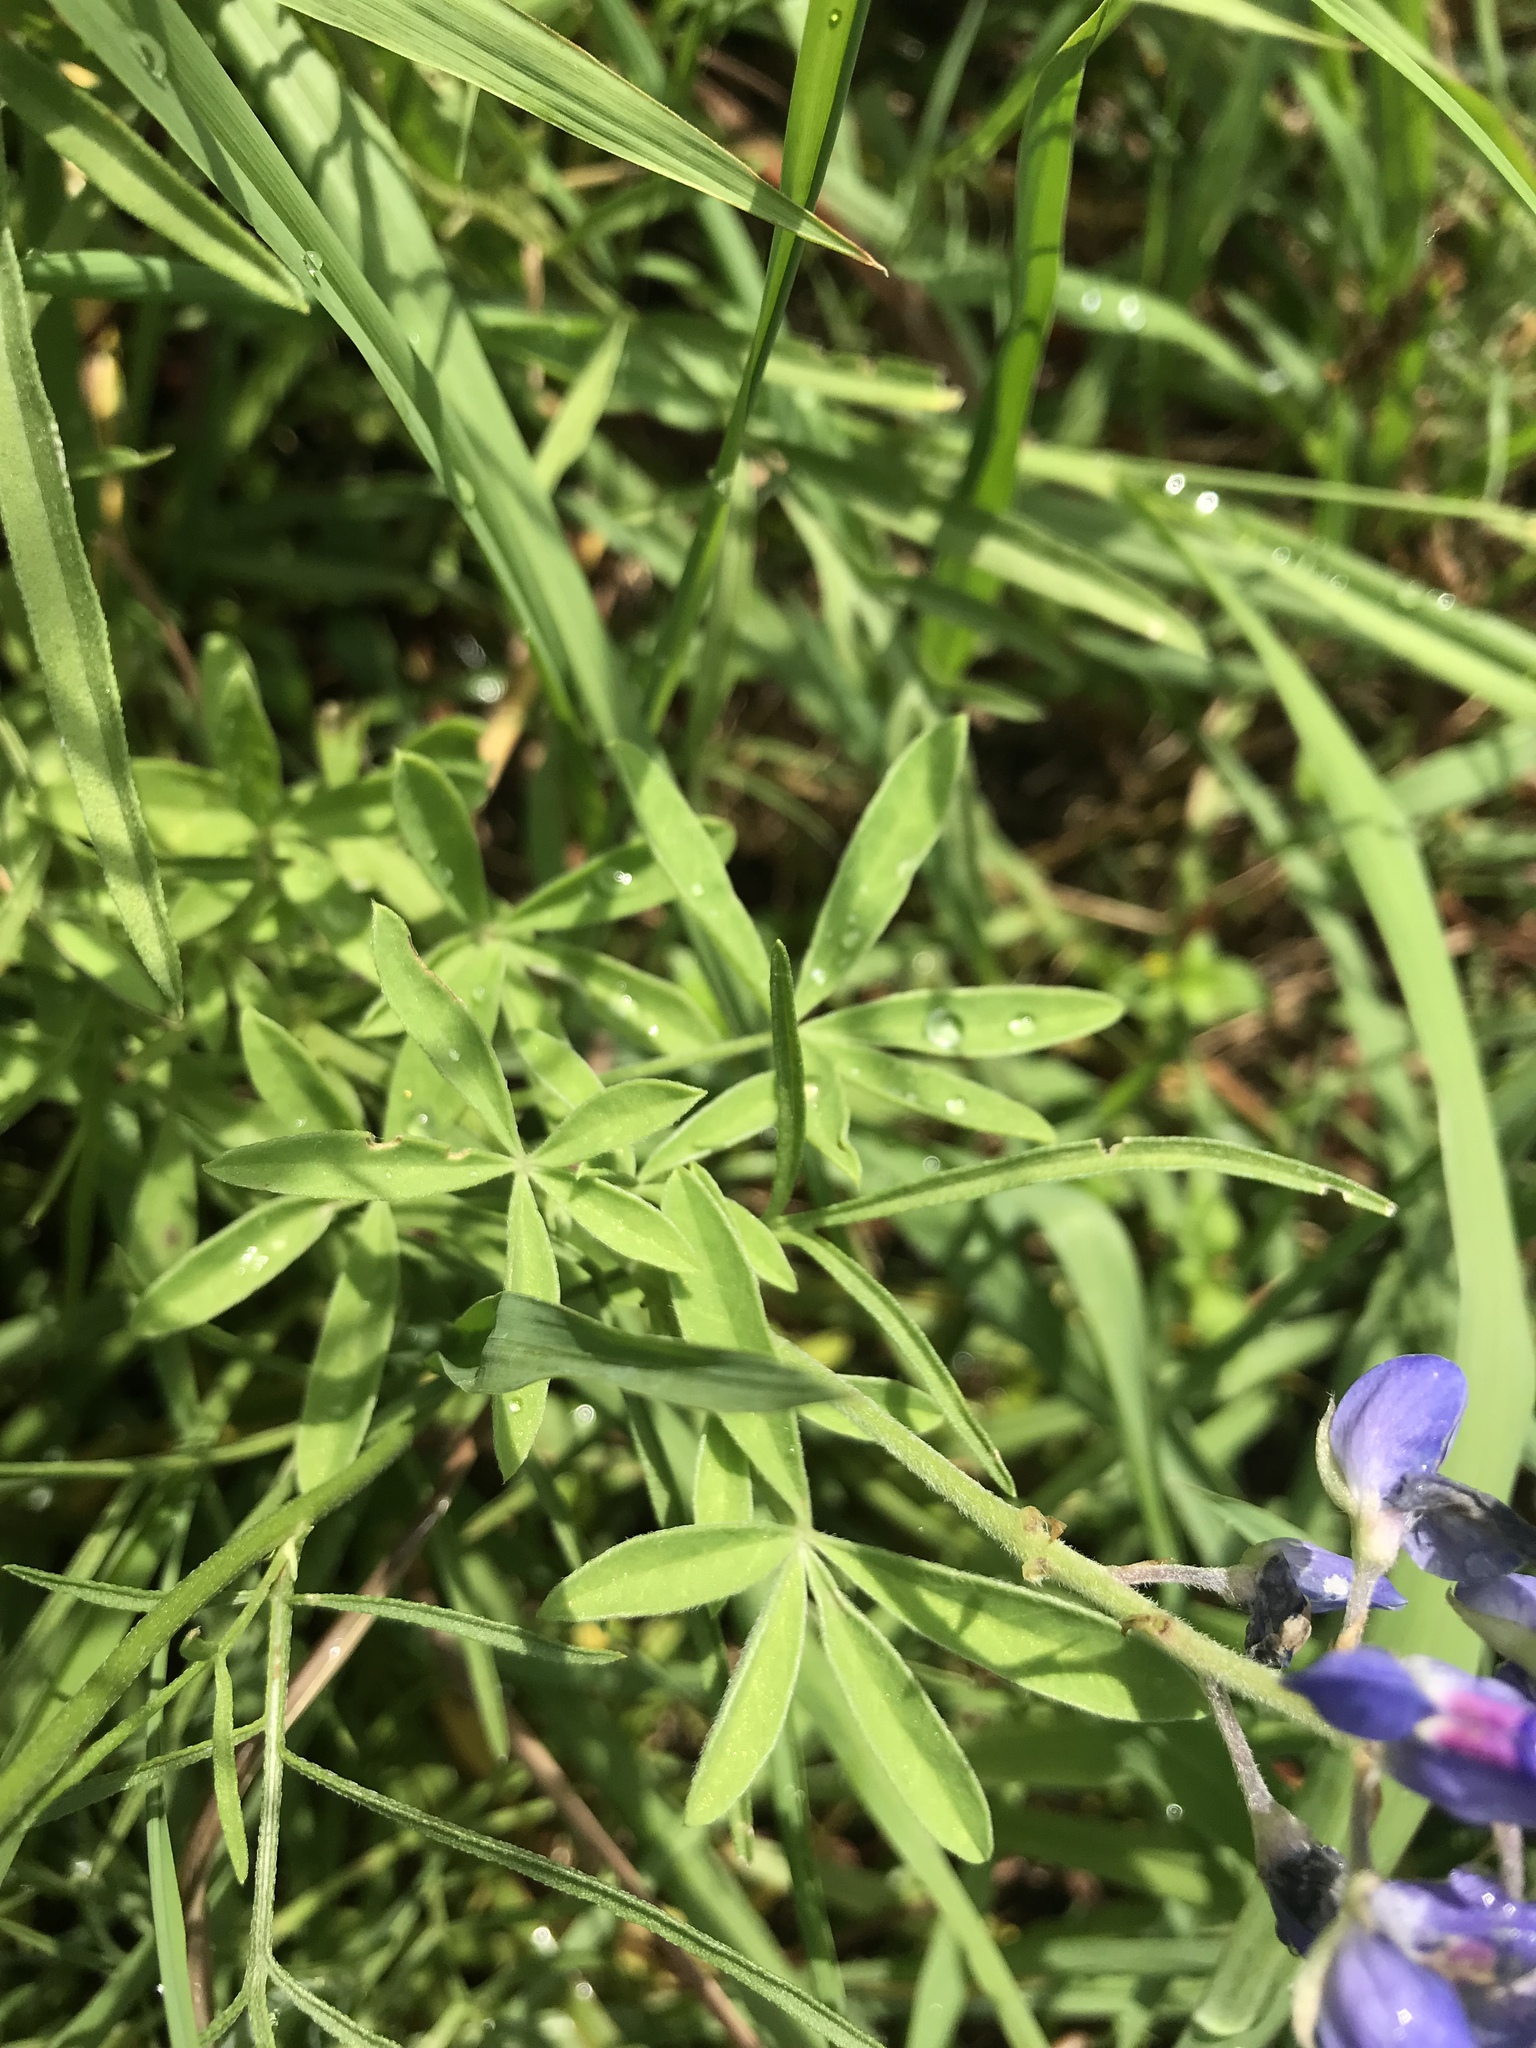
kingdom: Plantae
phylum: Tracheophyta
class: Magnoliopsida
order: Fabales
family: Fabaceae
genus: Lupinus
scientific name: Lupinus texensis
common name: Texas bluebonnet
